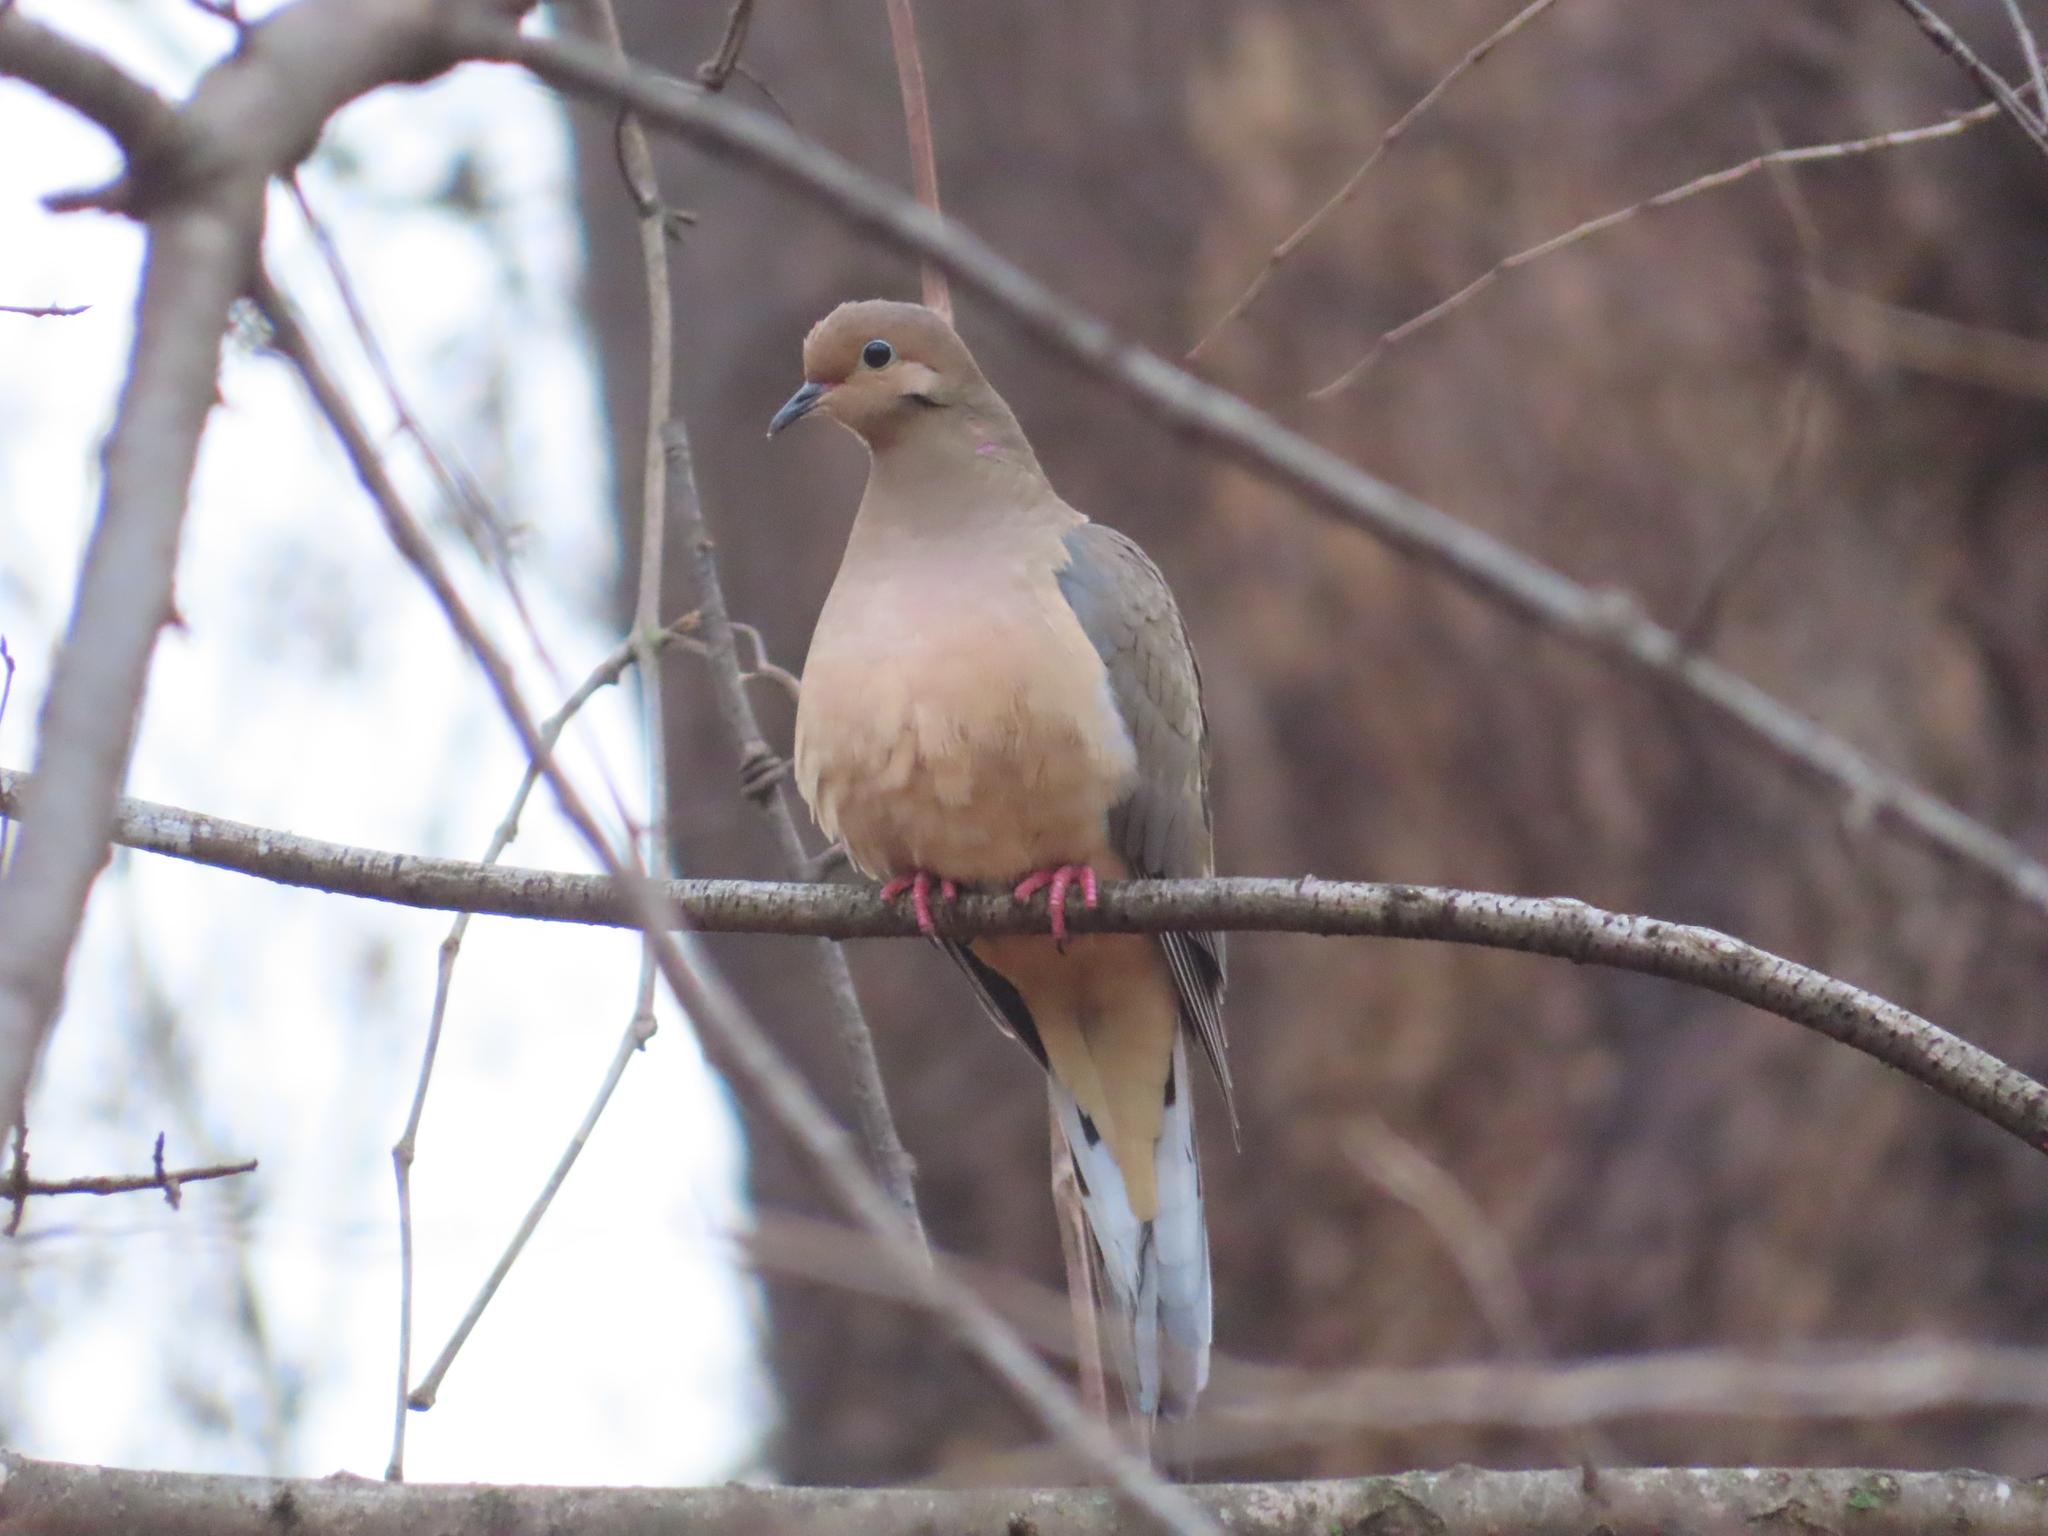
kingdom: Animalia
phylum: Chordata
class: Aves
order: Columbiformes
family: Columbidae
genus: Zenaida
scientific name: Zenaida macroura
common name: Mourning dove
